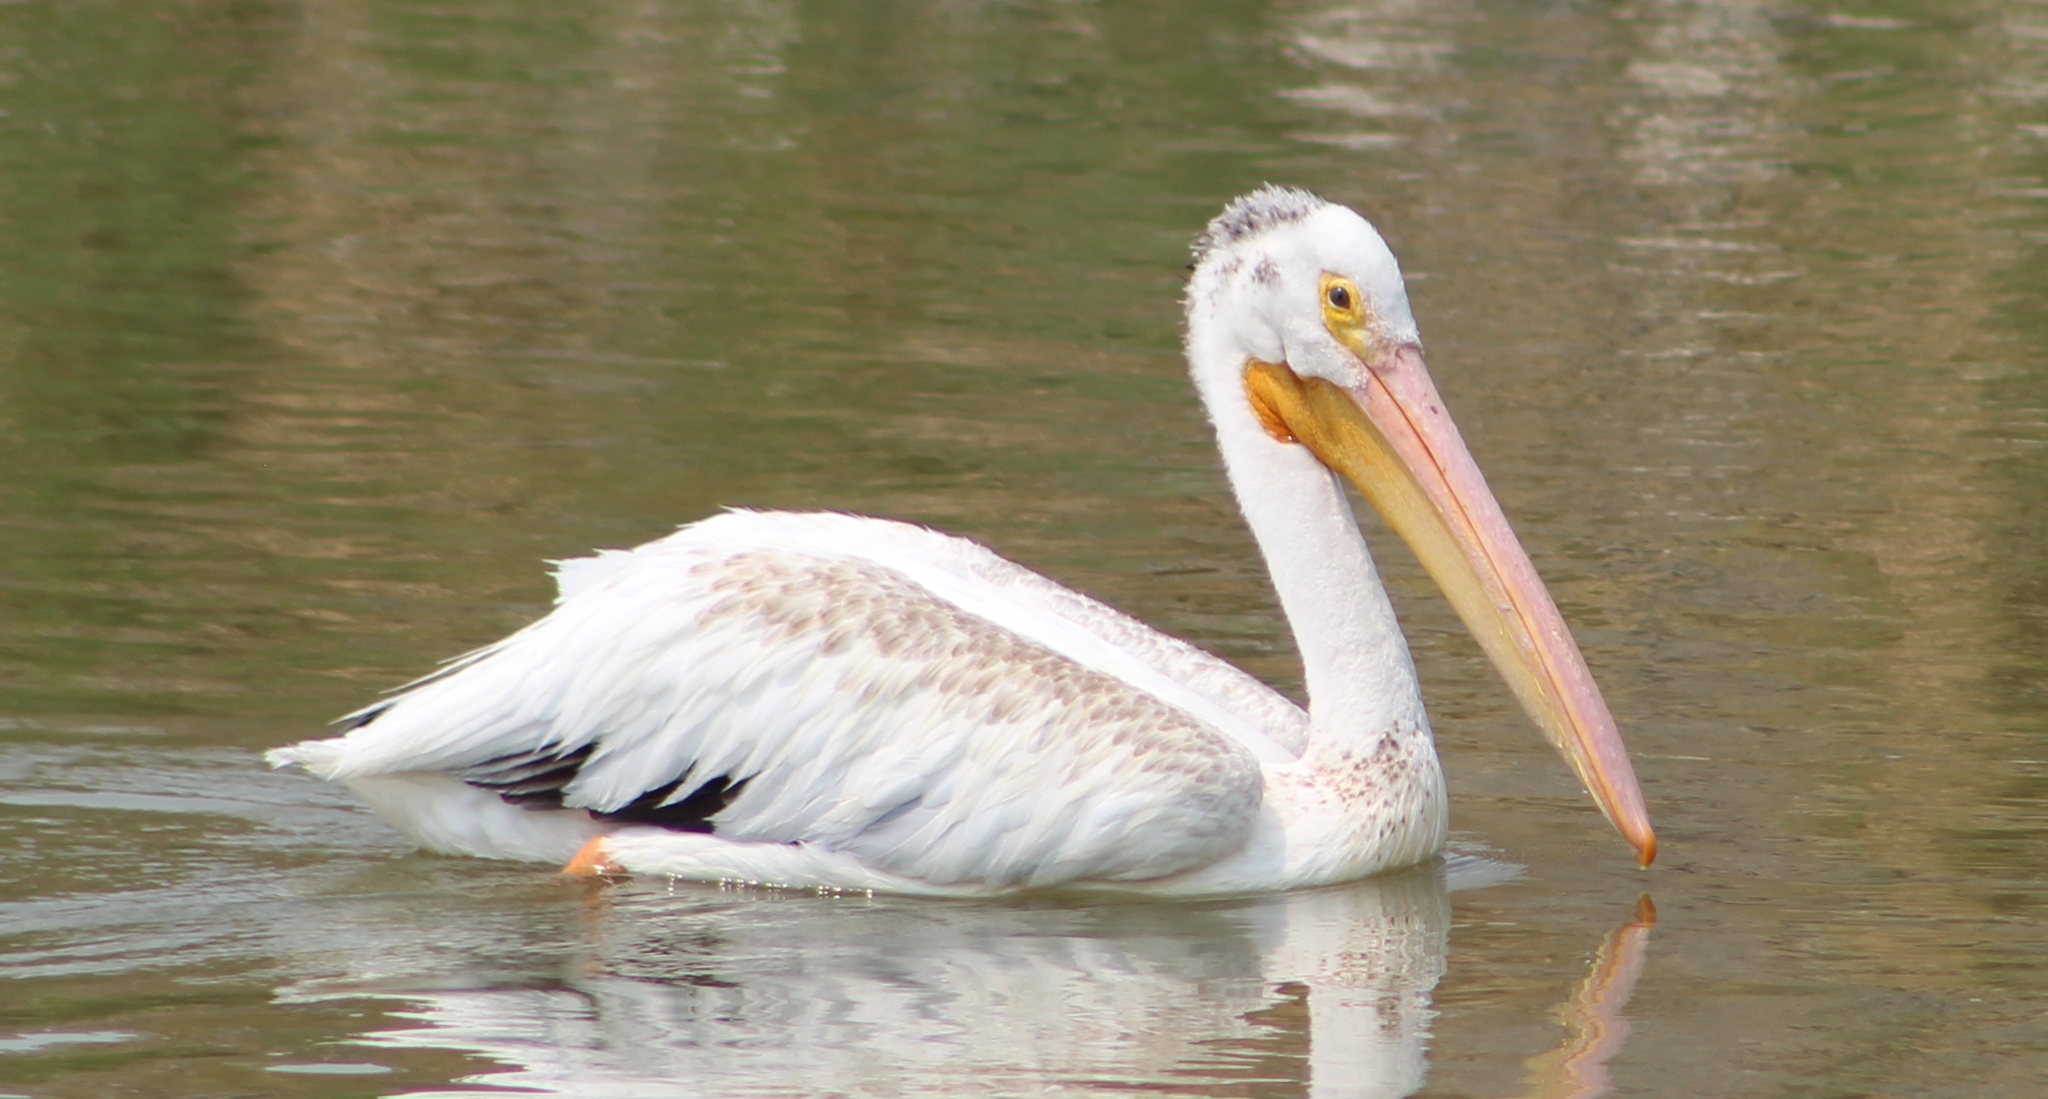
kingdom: Animalia
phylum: Chordata
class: Aves
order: Pelecaniformes
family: Pelecanidae
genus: Pelecanus
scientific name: Pelecanus erythrorhynchos
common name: American white pelican
